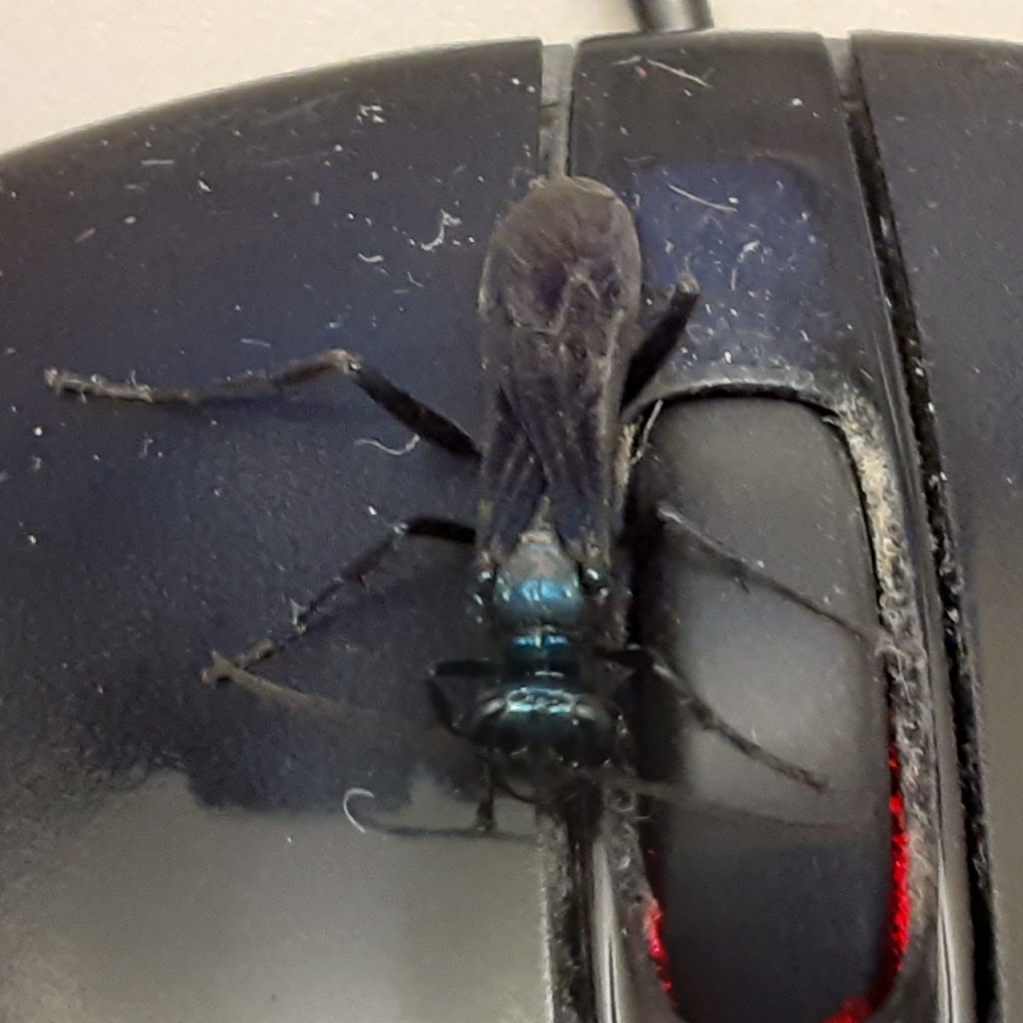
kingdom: Animalia
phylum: Arthropoda
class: Insecta
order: Hymenoptera
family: Sphecidae
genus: Chalybion
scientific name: Chalybion californicum
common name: Mud dauber
